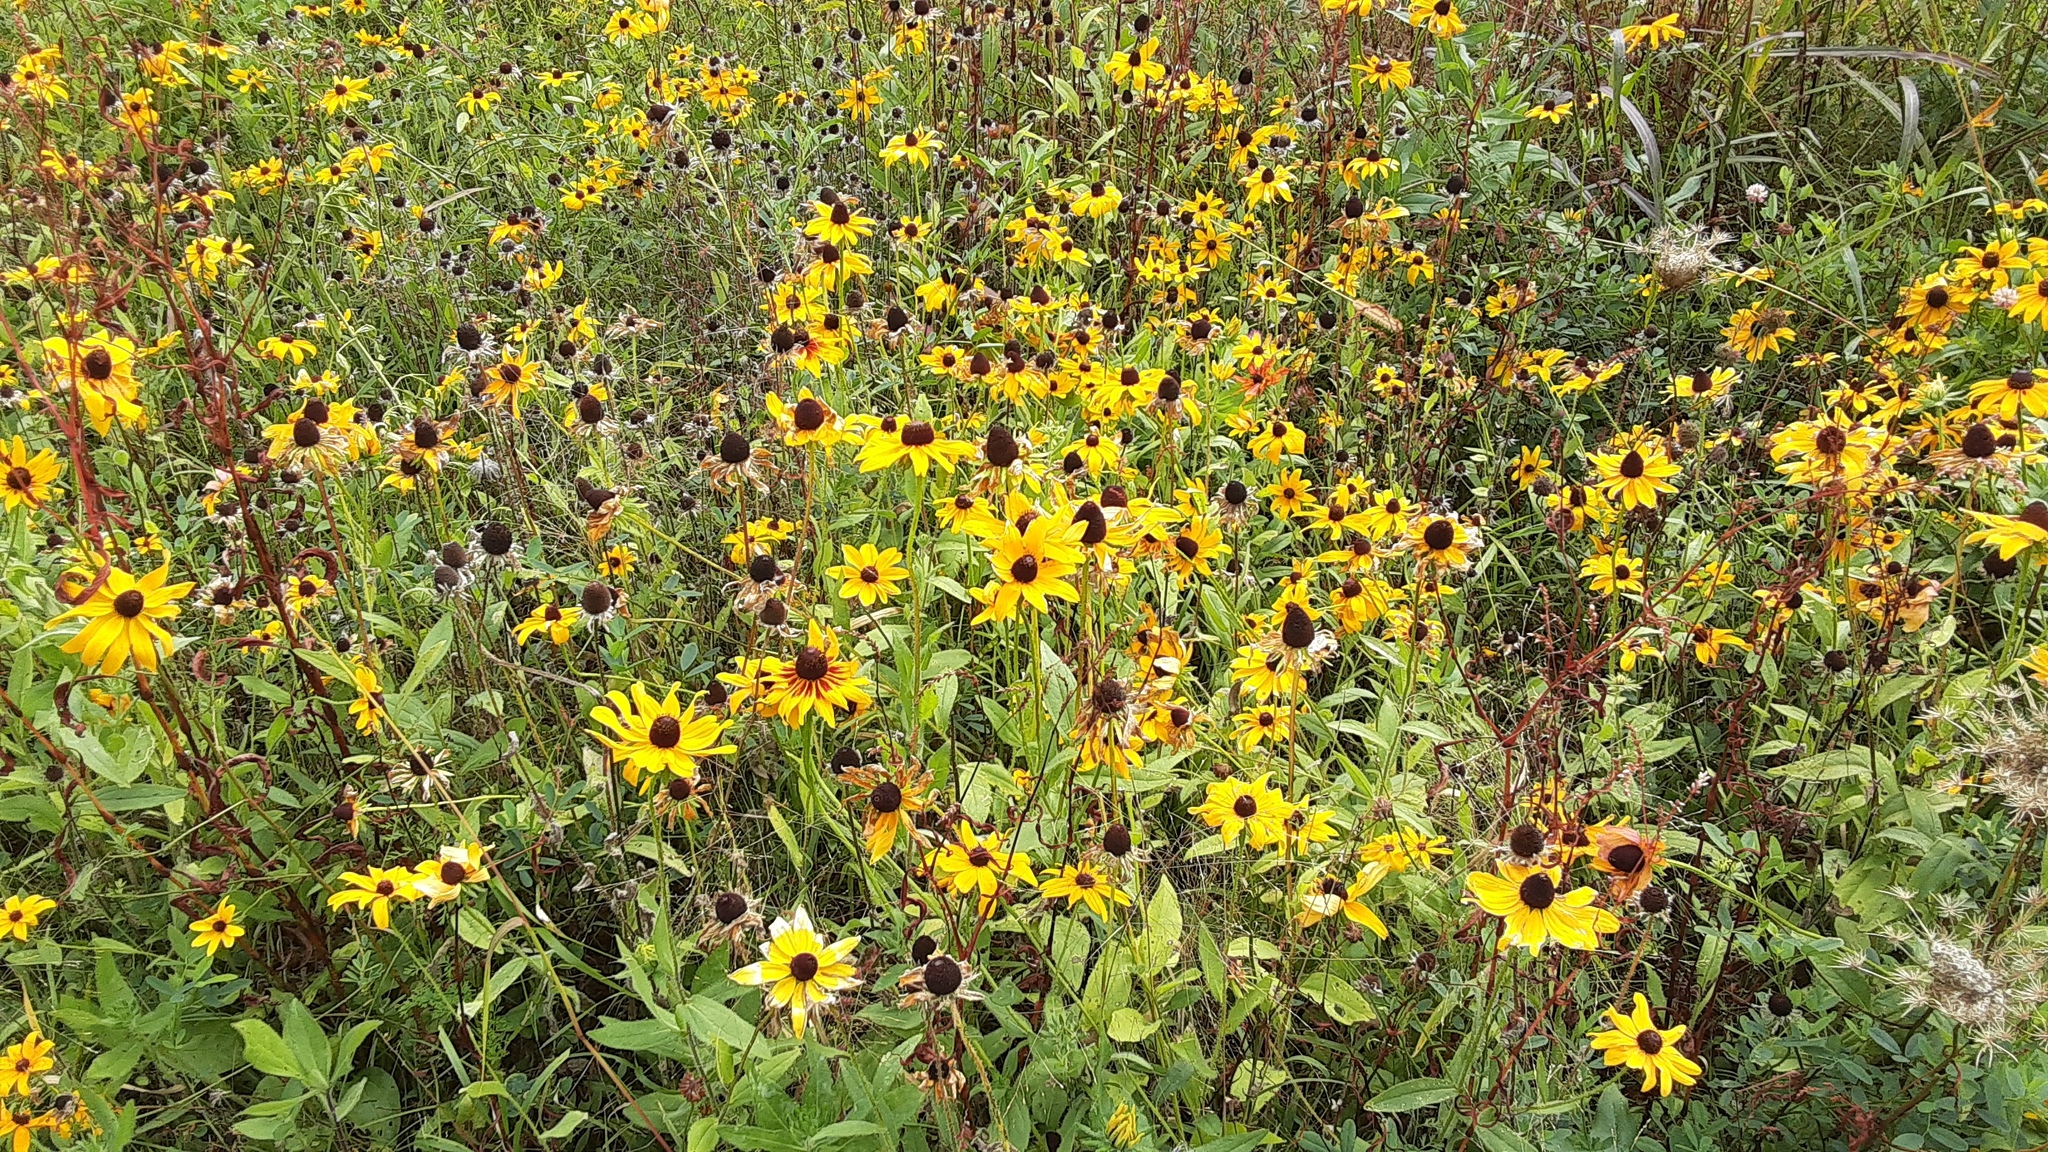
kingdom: Plantae
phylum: Tracheophyta
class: Magnoliopsida
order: Asterales
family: Asteraceae
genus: Rudbeckia
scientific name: Rudbeckia hirta
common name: Black-eyed-susan
